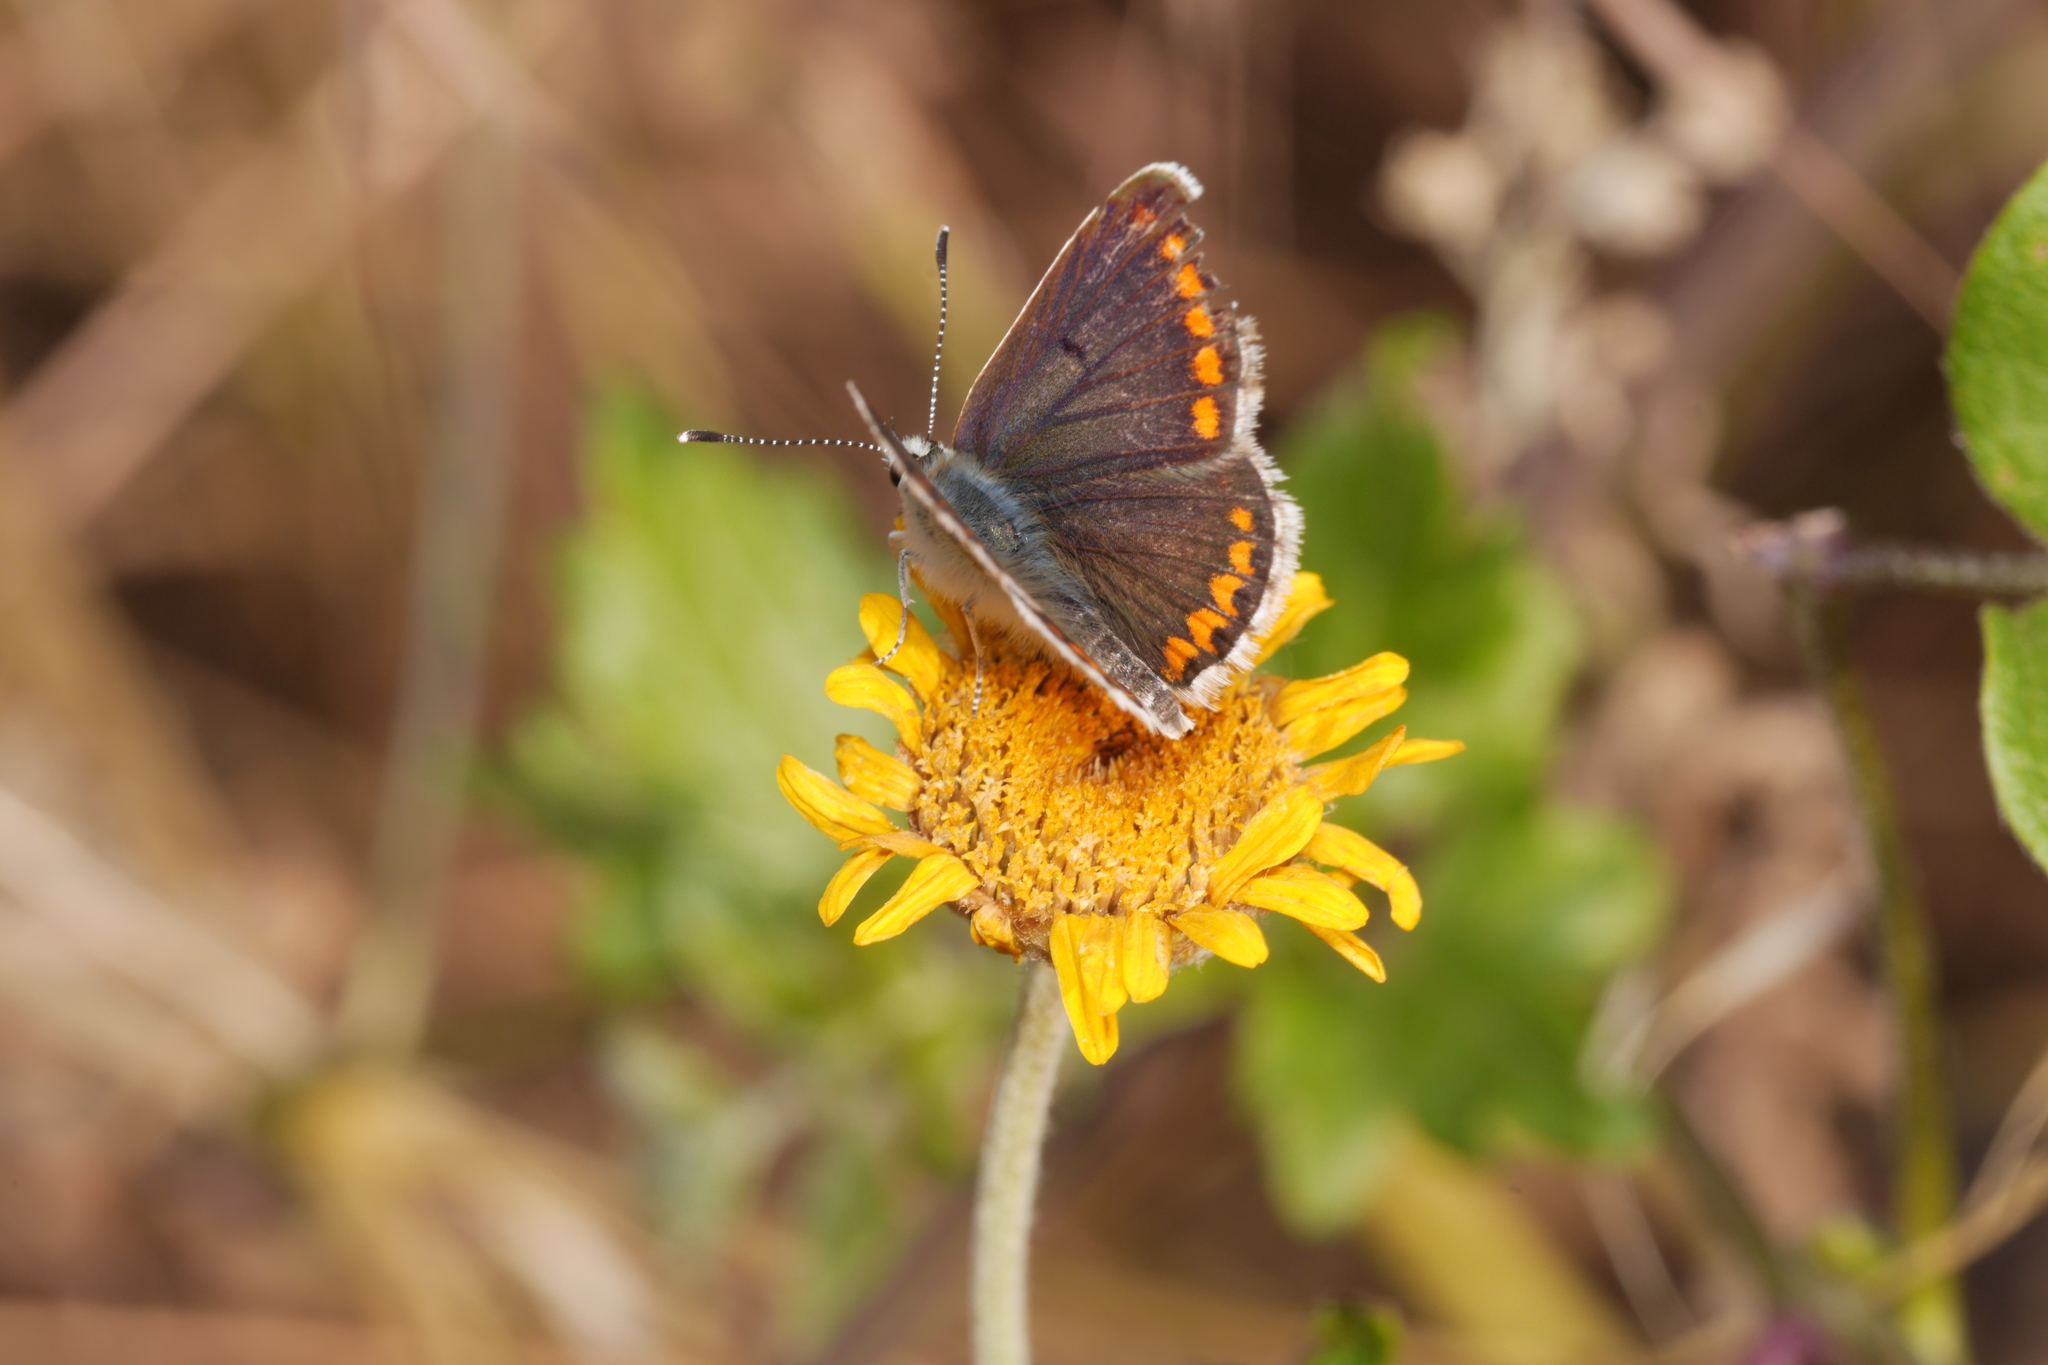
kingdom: Animalia
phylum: Arthropoda
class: Insecta
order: Lepidoptera
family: Lycaenidae
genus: Aricia
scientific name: Aricia agestis
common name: Brown argus
